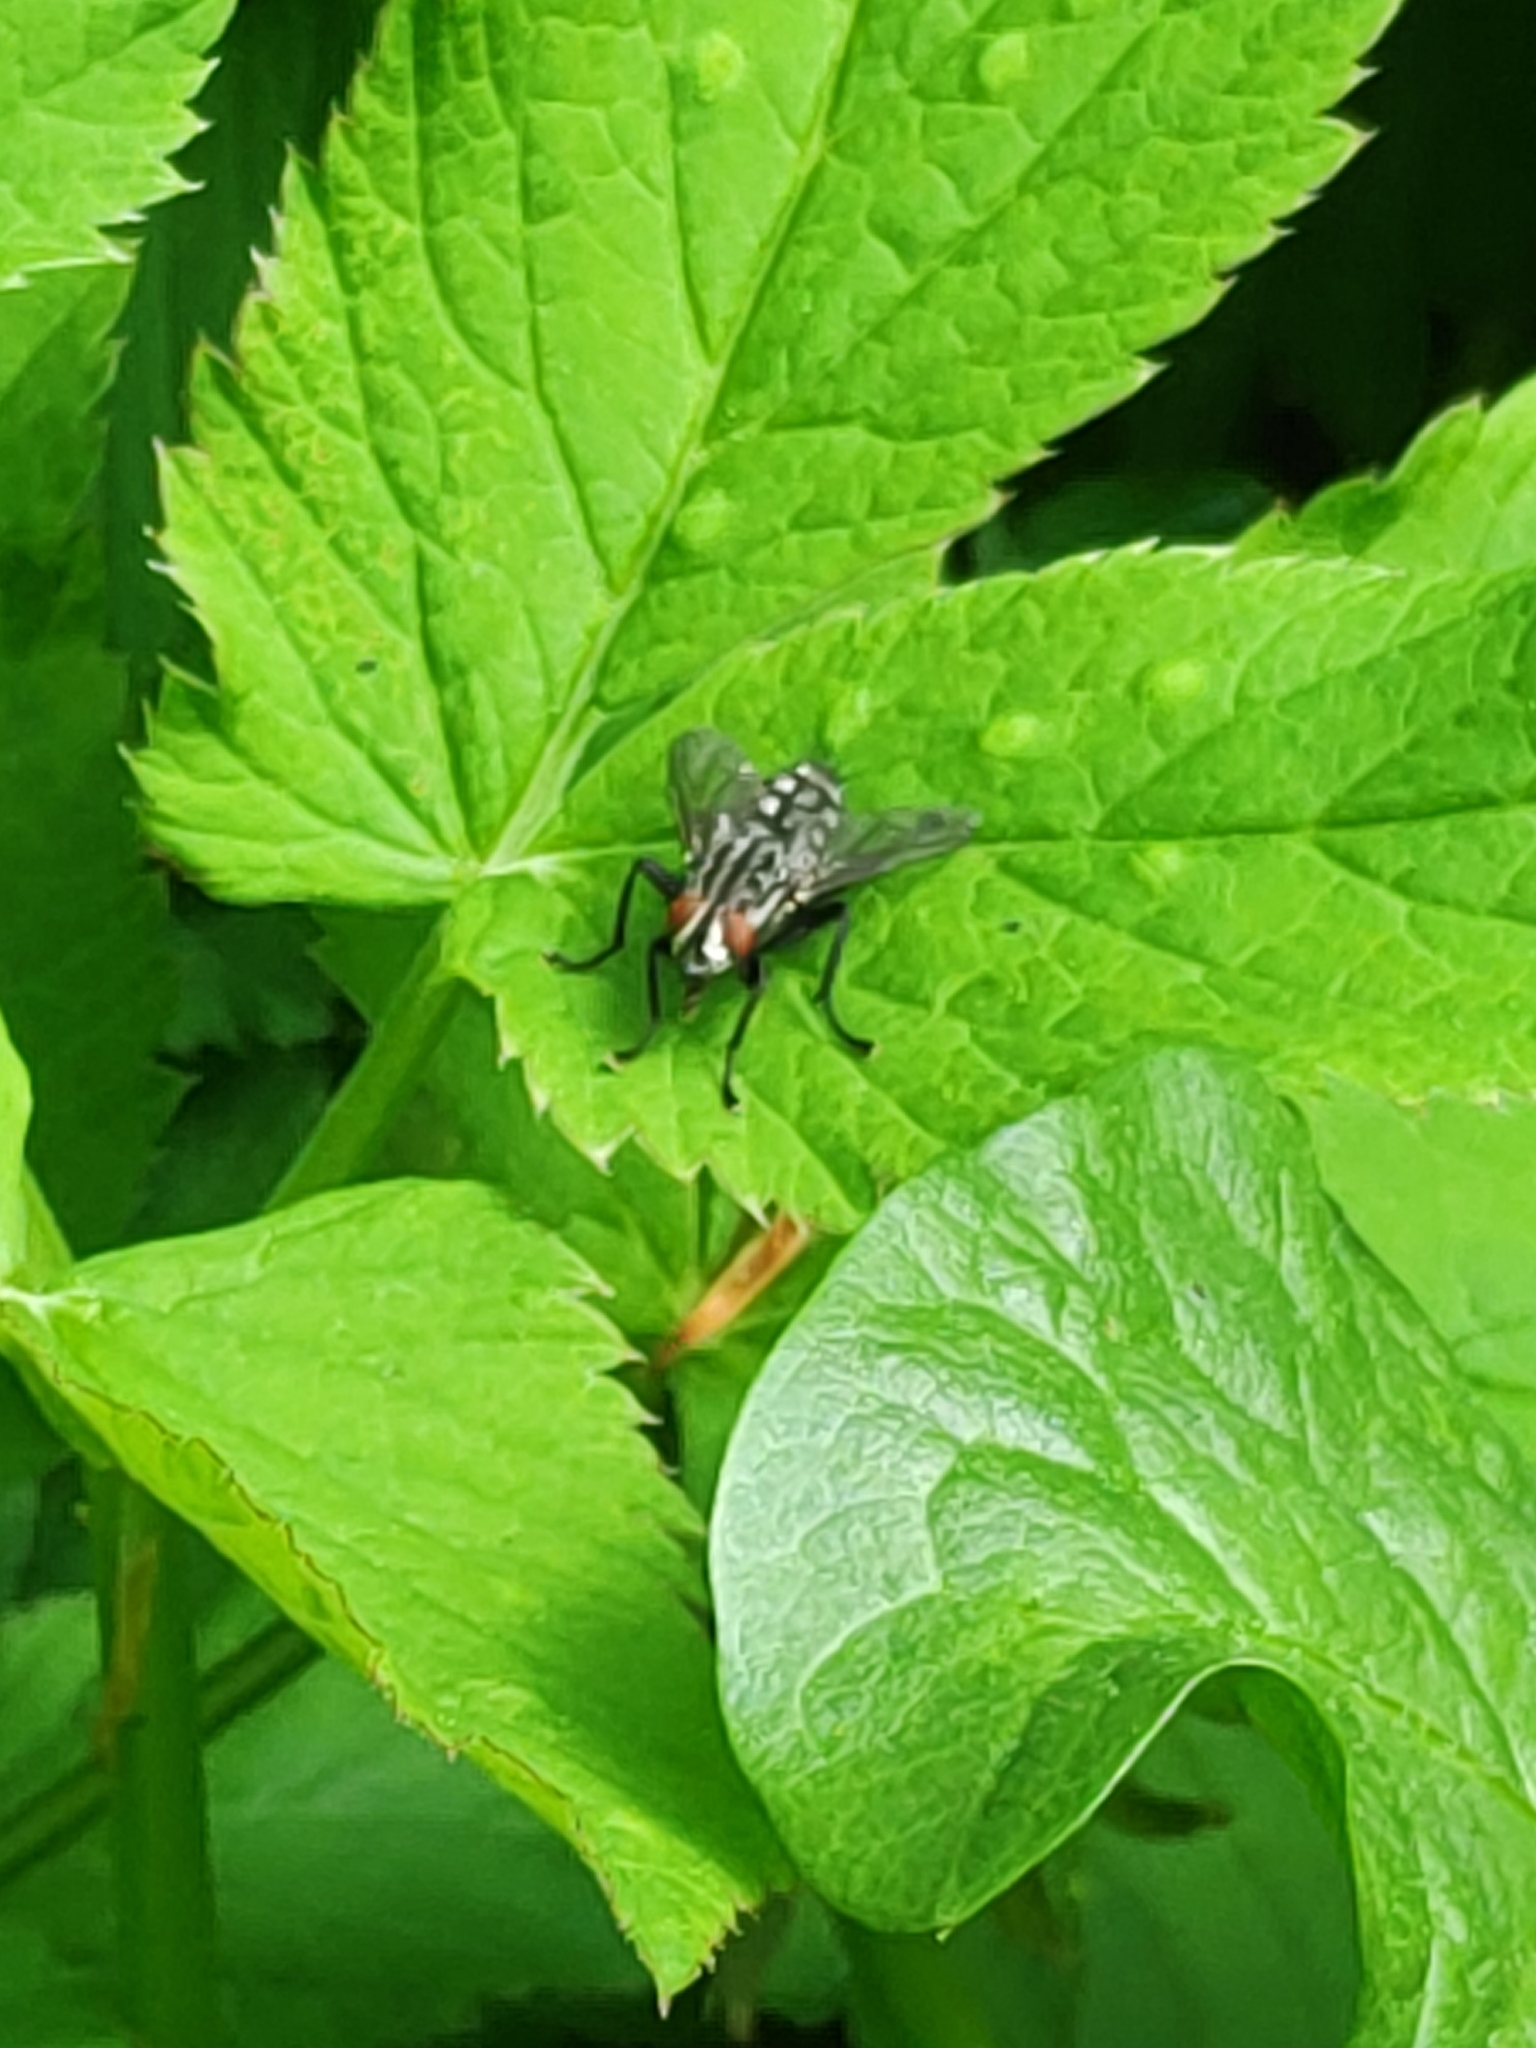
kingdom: Animalia
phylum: Arthropoda
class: Insecta
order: Diptera
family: Sarcophagidae
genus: Sarcophaga
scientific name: Sarcophaga
